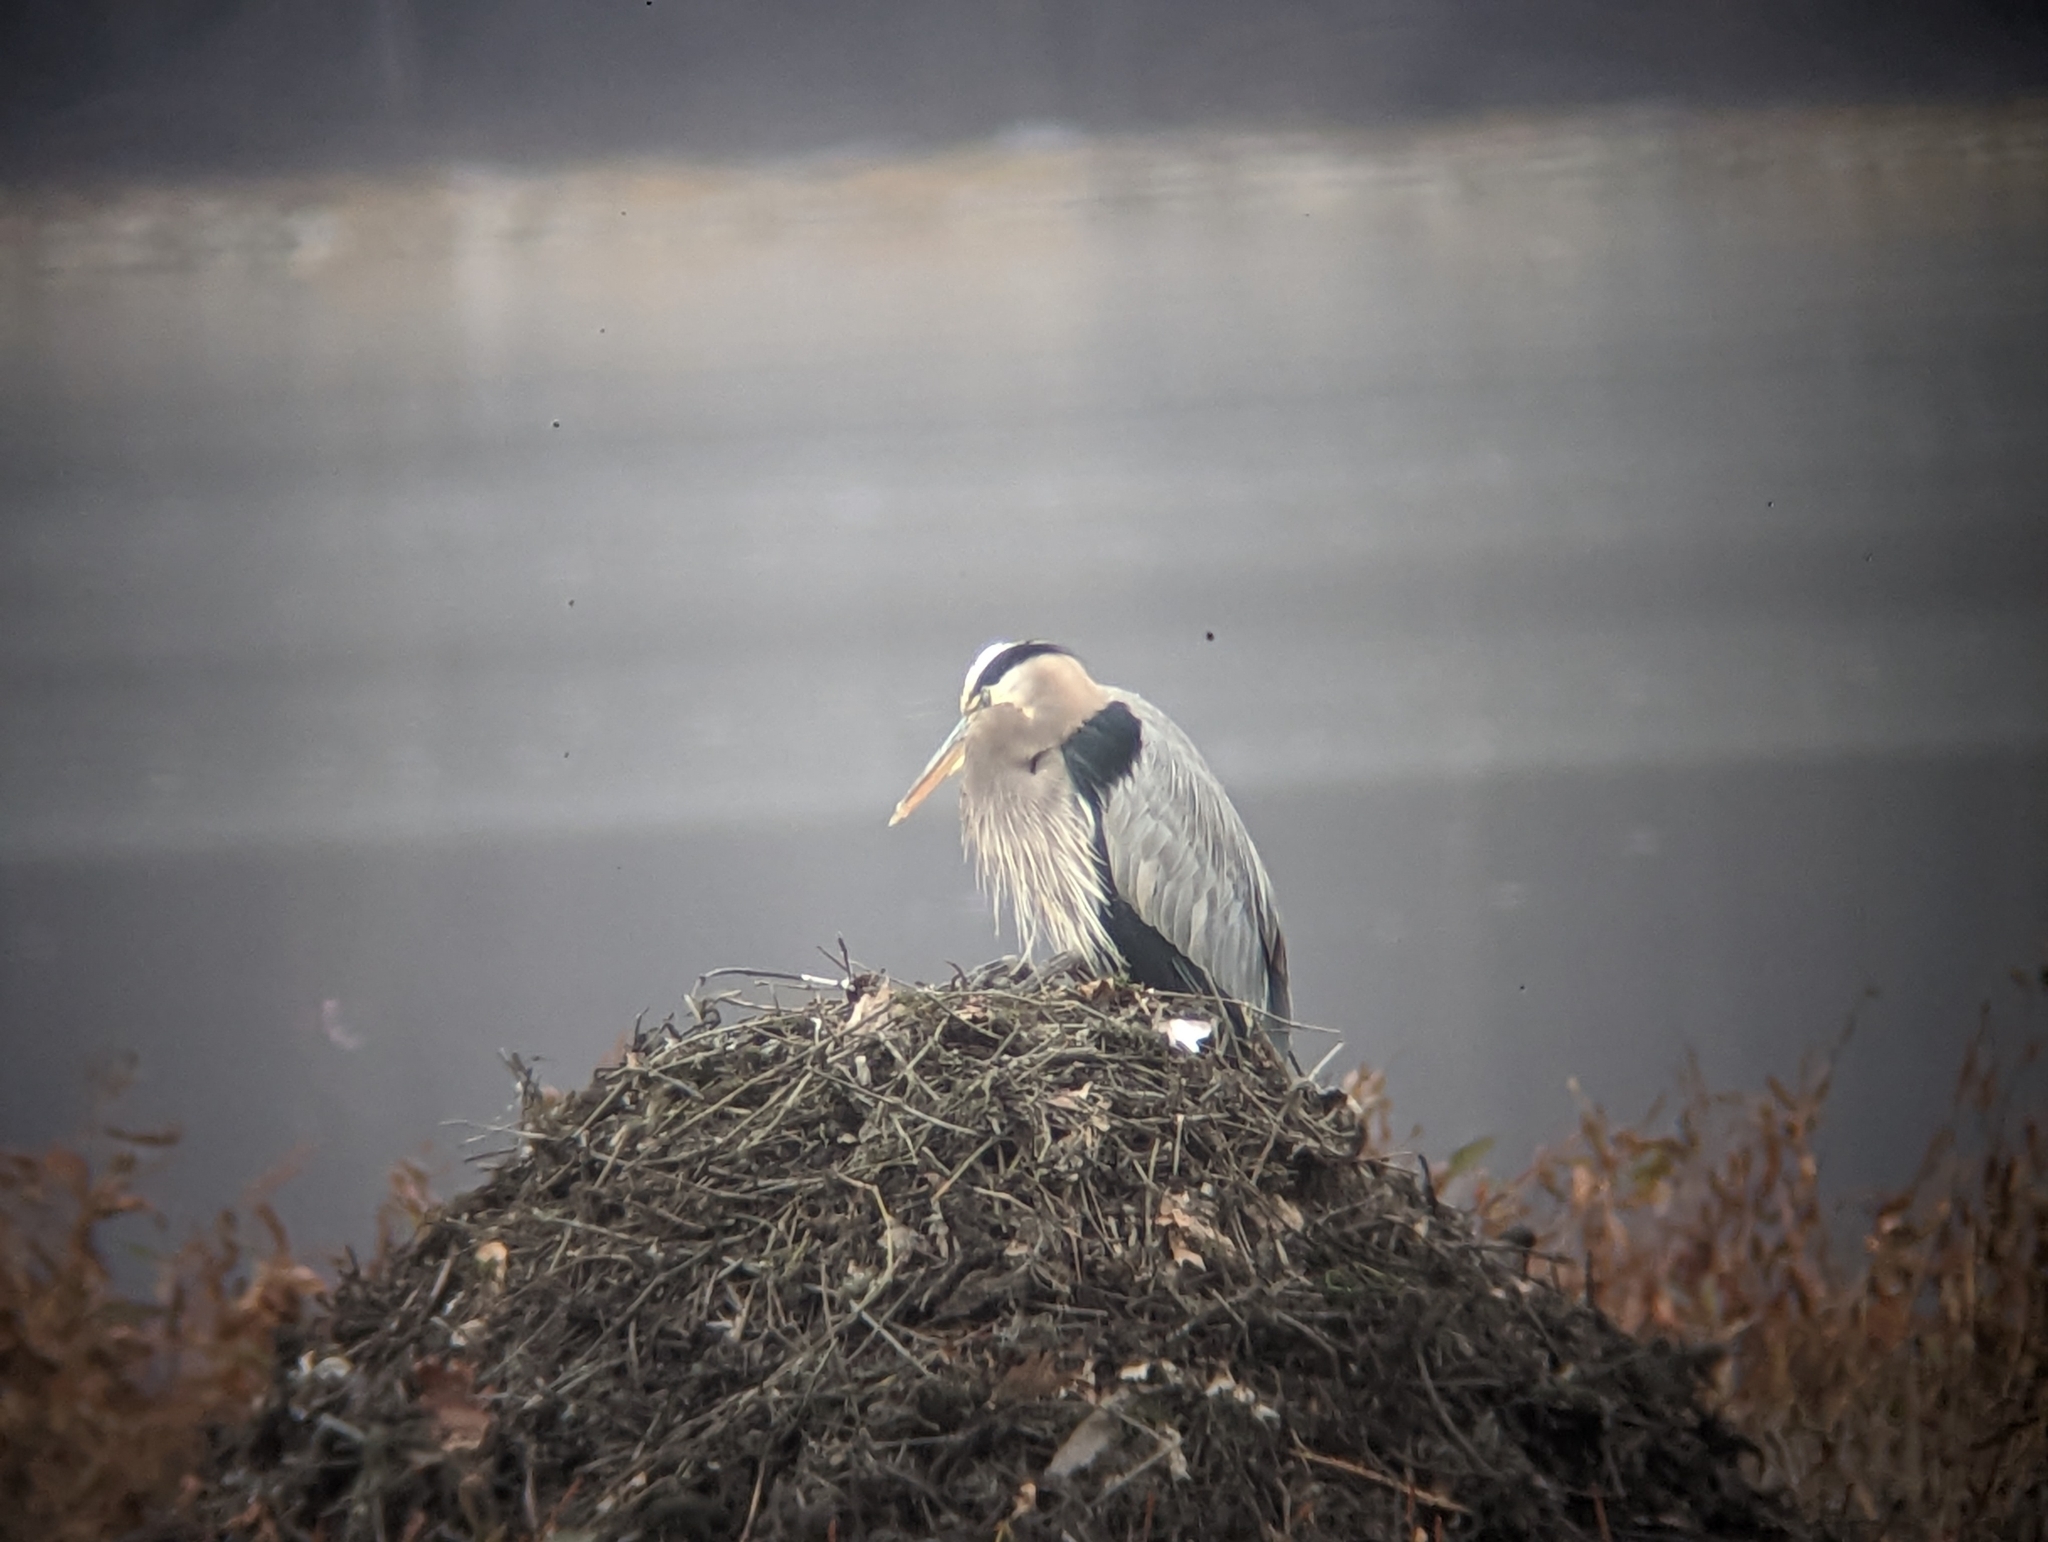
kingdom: Animalia
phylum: Chordata
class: Aves
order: Pelecaniformes
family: Ardeidae
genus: Ardea
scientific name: Ardea herodias
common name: Great blue heron
